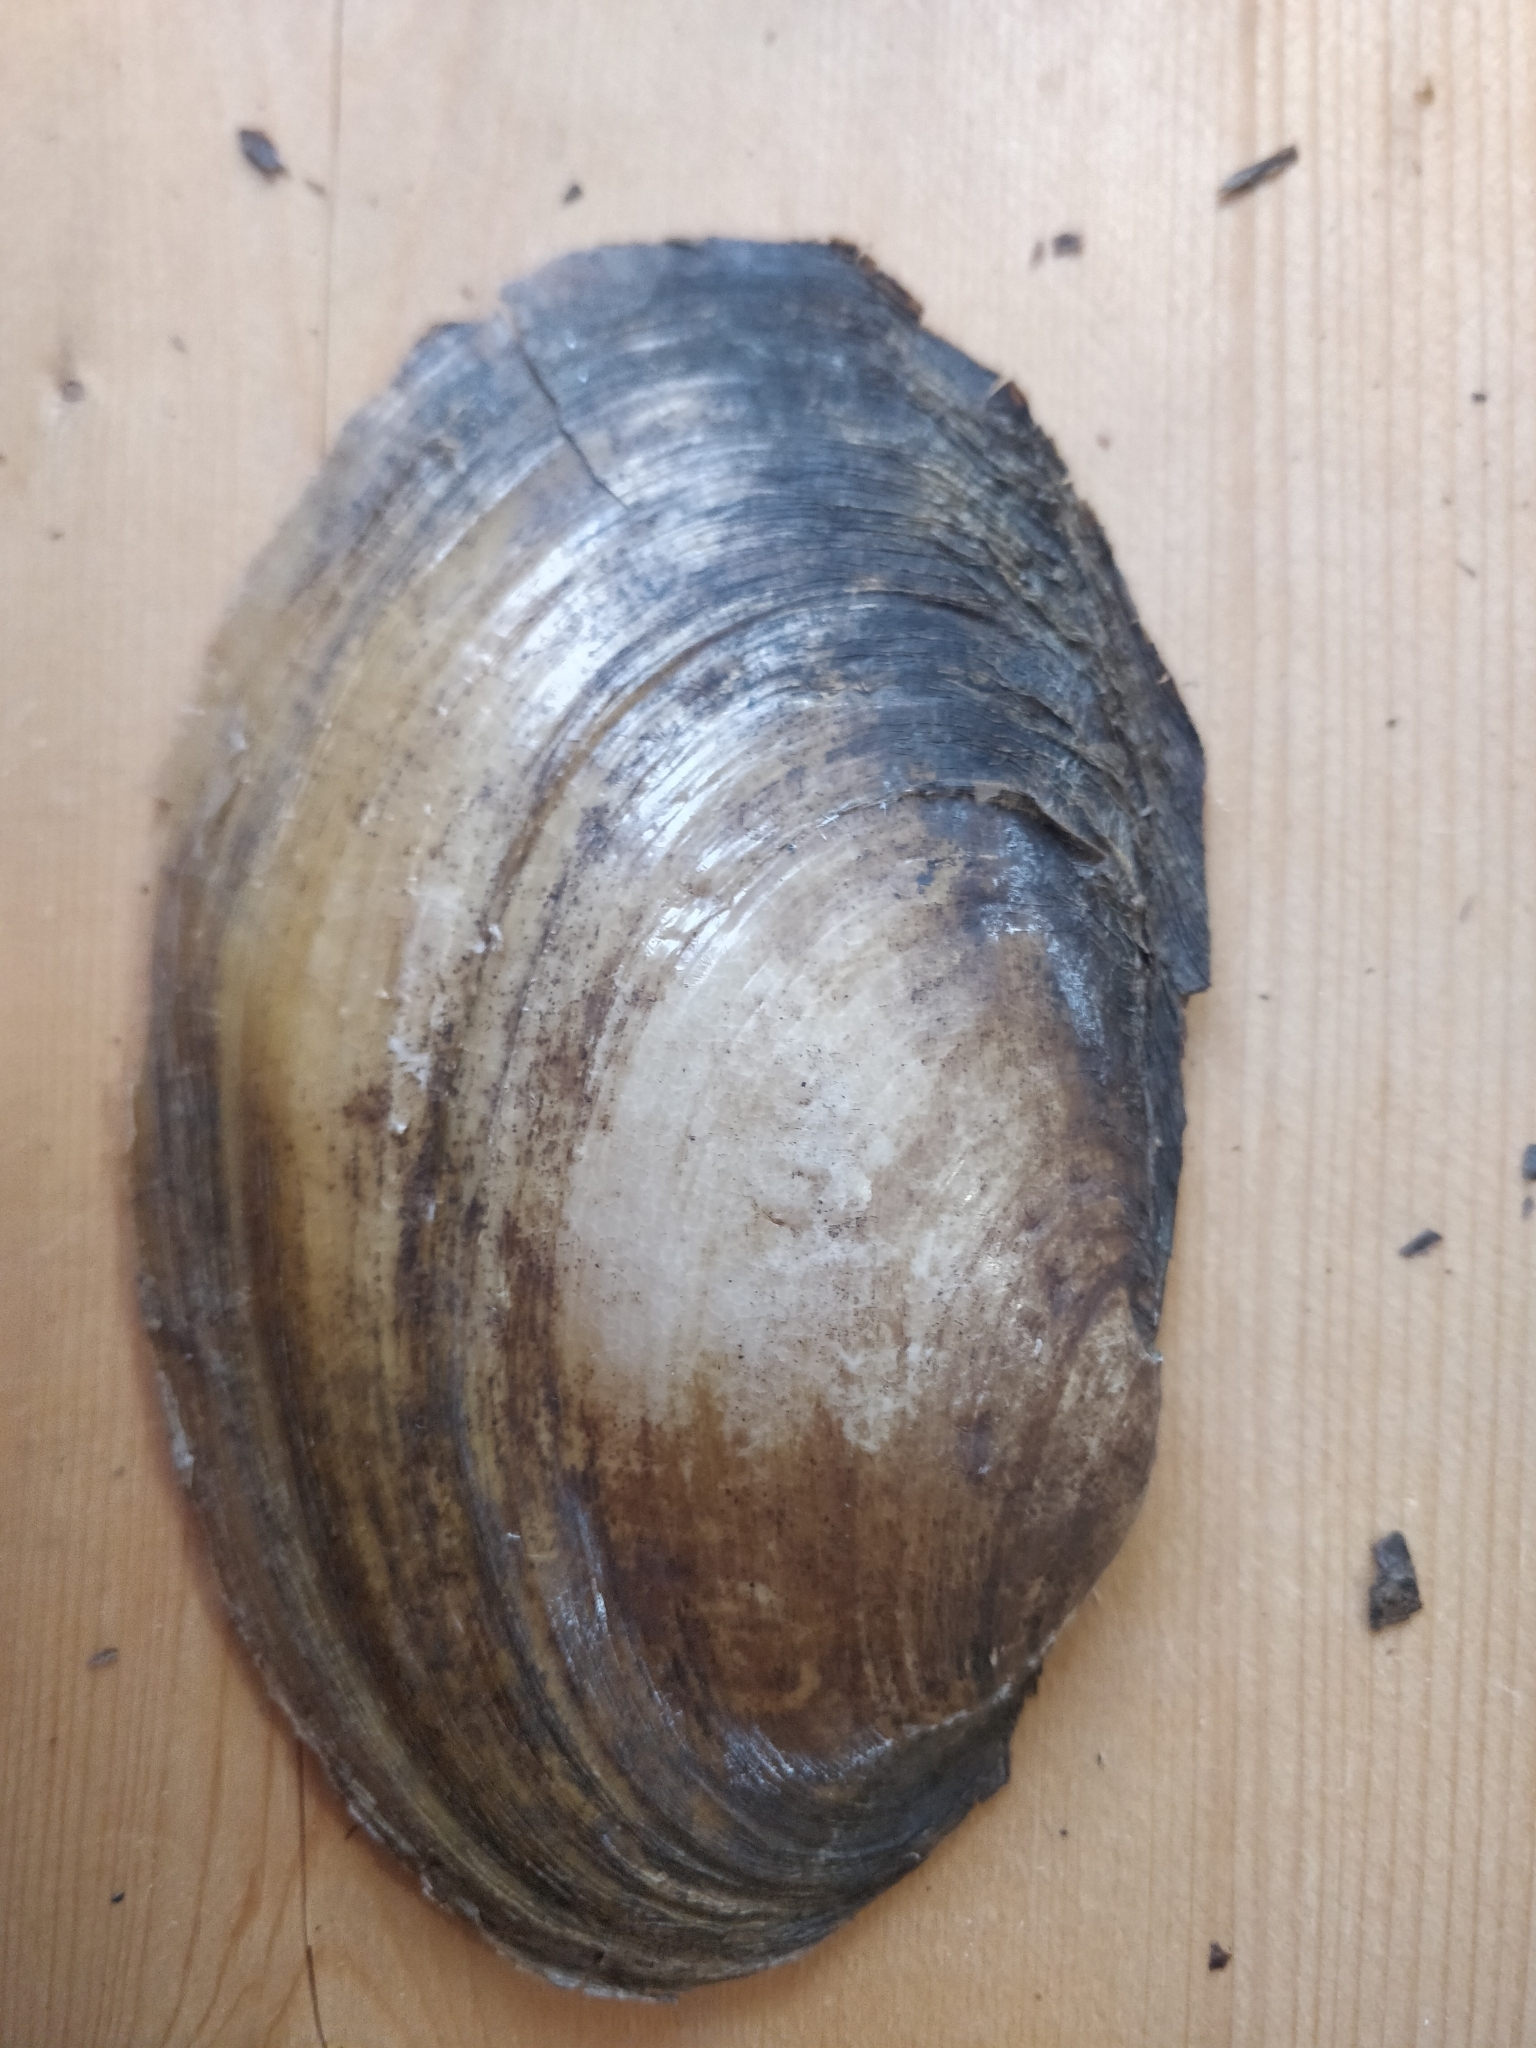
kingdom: Animalia
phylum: Mollusca
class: Bivalvia
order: Unionida
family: Unionidae
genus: Potamilus
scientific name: Potamilus fragilis
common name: Fragile papershell
